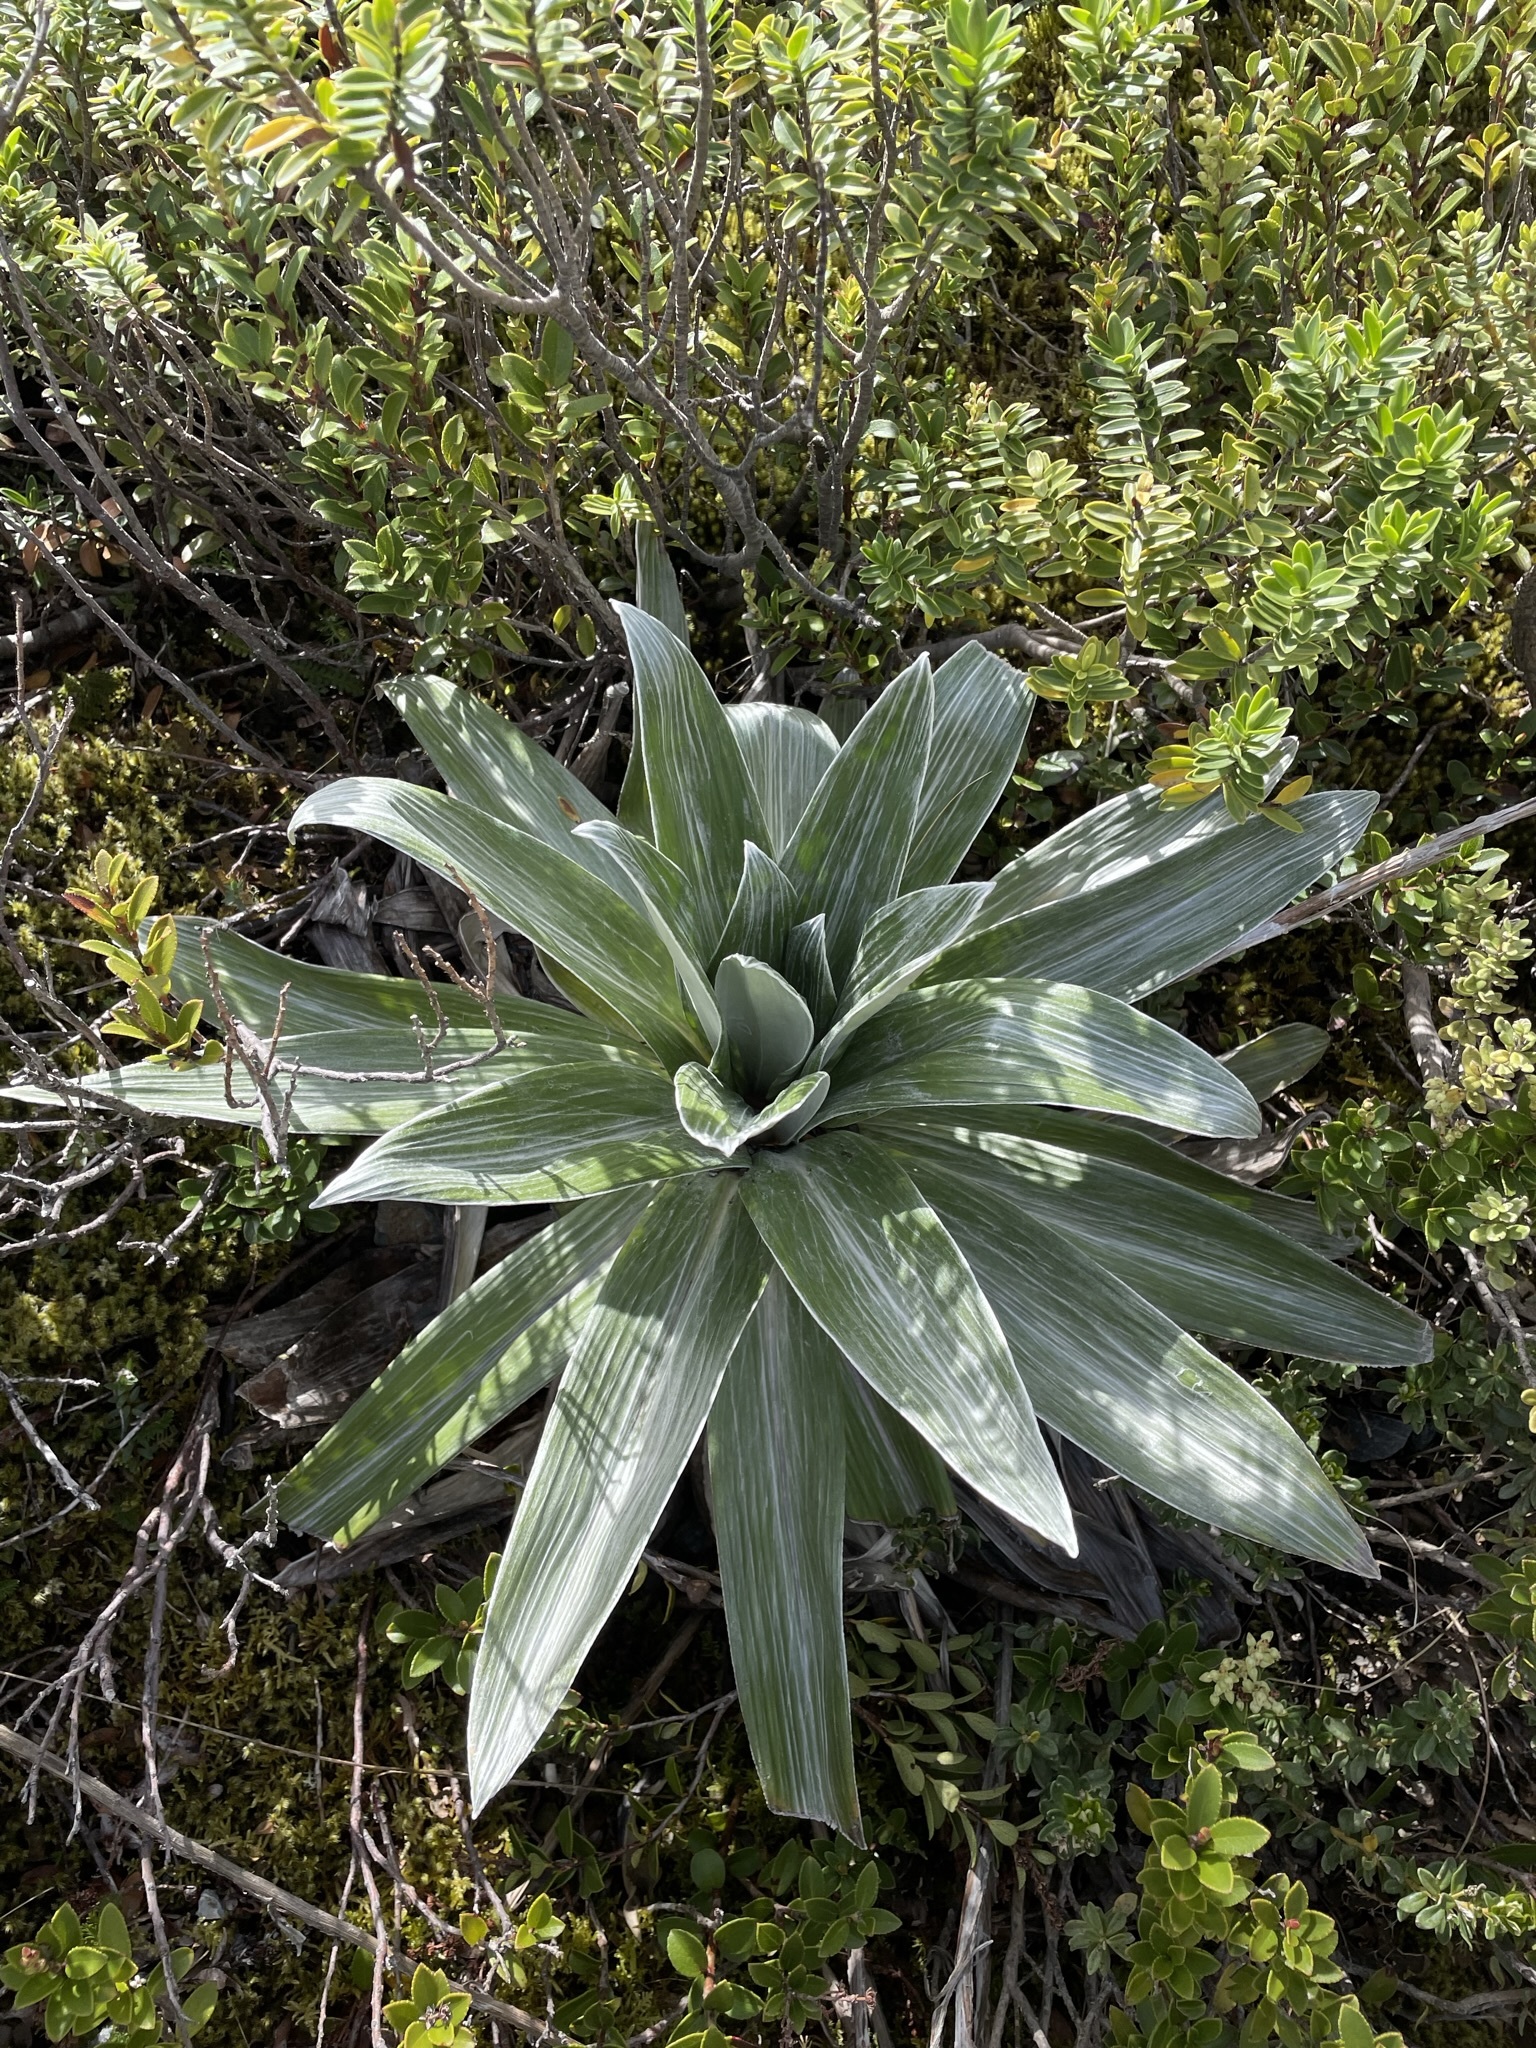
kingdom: Plantae
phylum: Tracheophyta
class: Magnoliopsida
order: Asterales
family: Asteraceae
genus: Celmisia
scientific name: Celmisia semicordata
